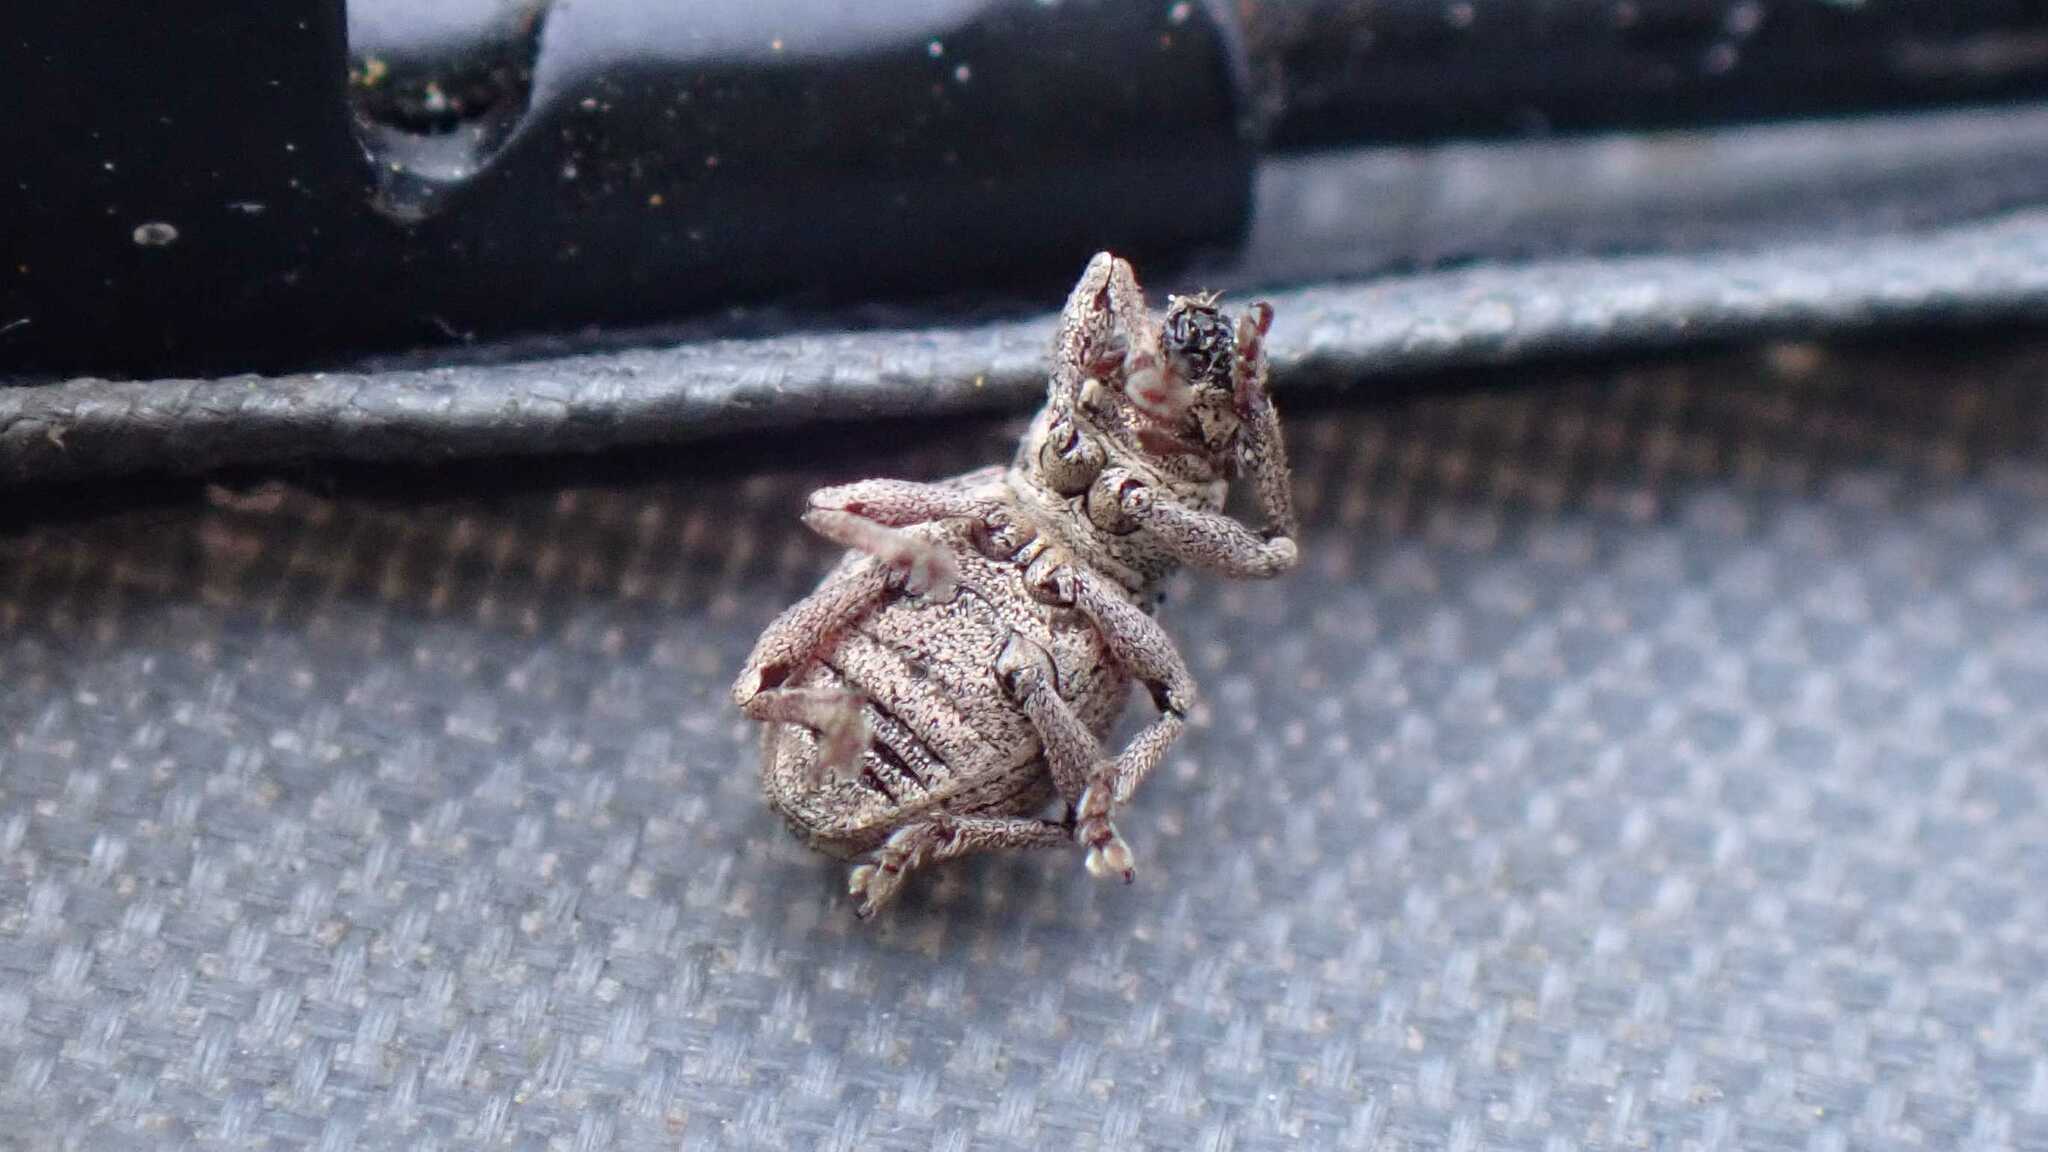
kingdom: Animalia
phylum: Arthropoda
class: Insecta
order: Coleoptera
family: Curculionidae
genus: Strophosoma
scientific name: Strophosoma capitatum
